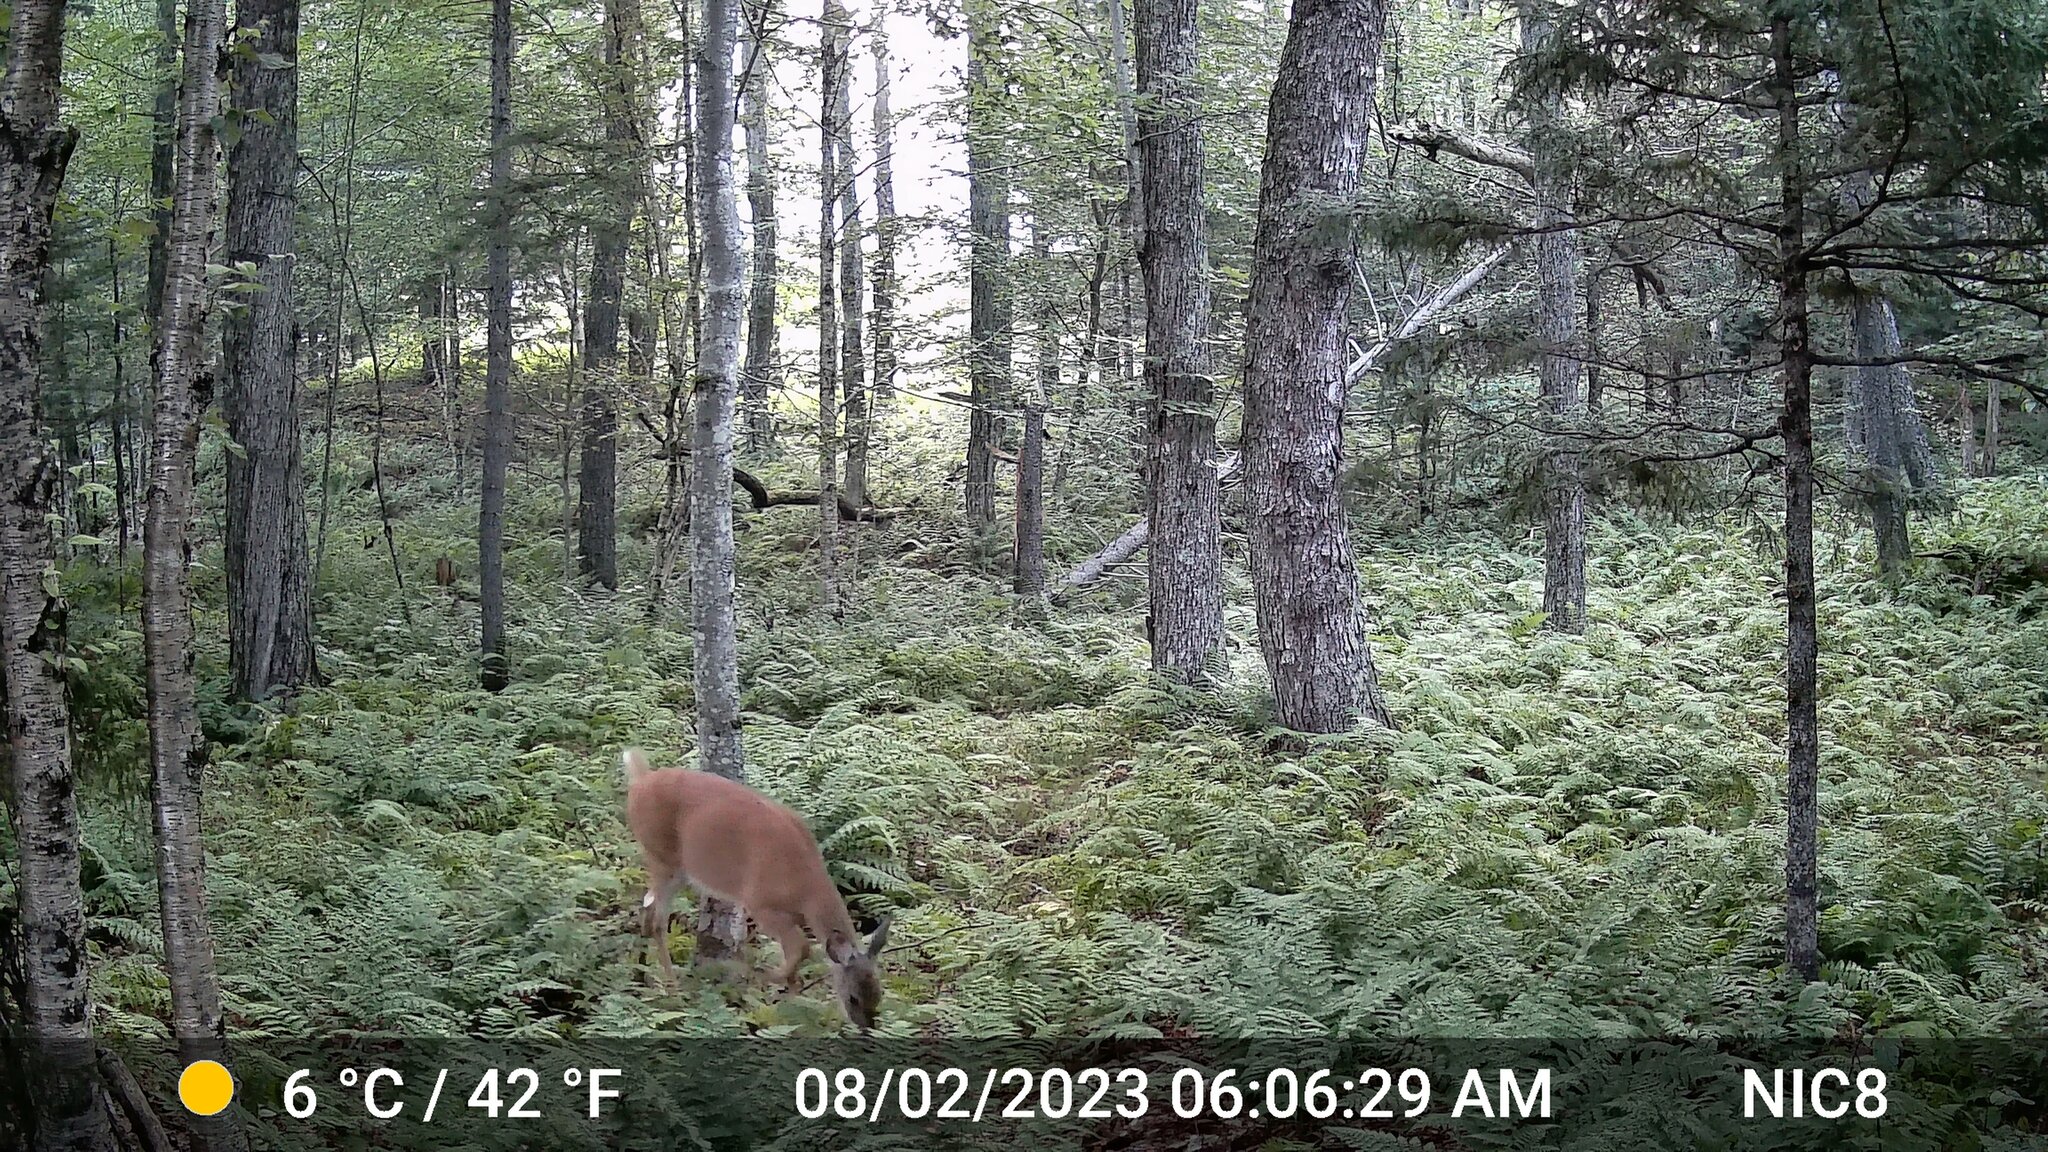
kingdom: Animalia
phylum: Chordata
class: Mammalia
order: Artiodactyla
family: Cervidae
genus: Odocoileus
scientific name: Odocoileus virginianus
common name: White-tailed deer
